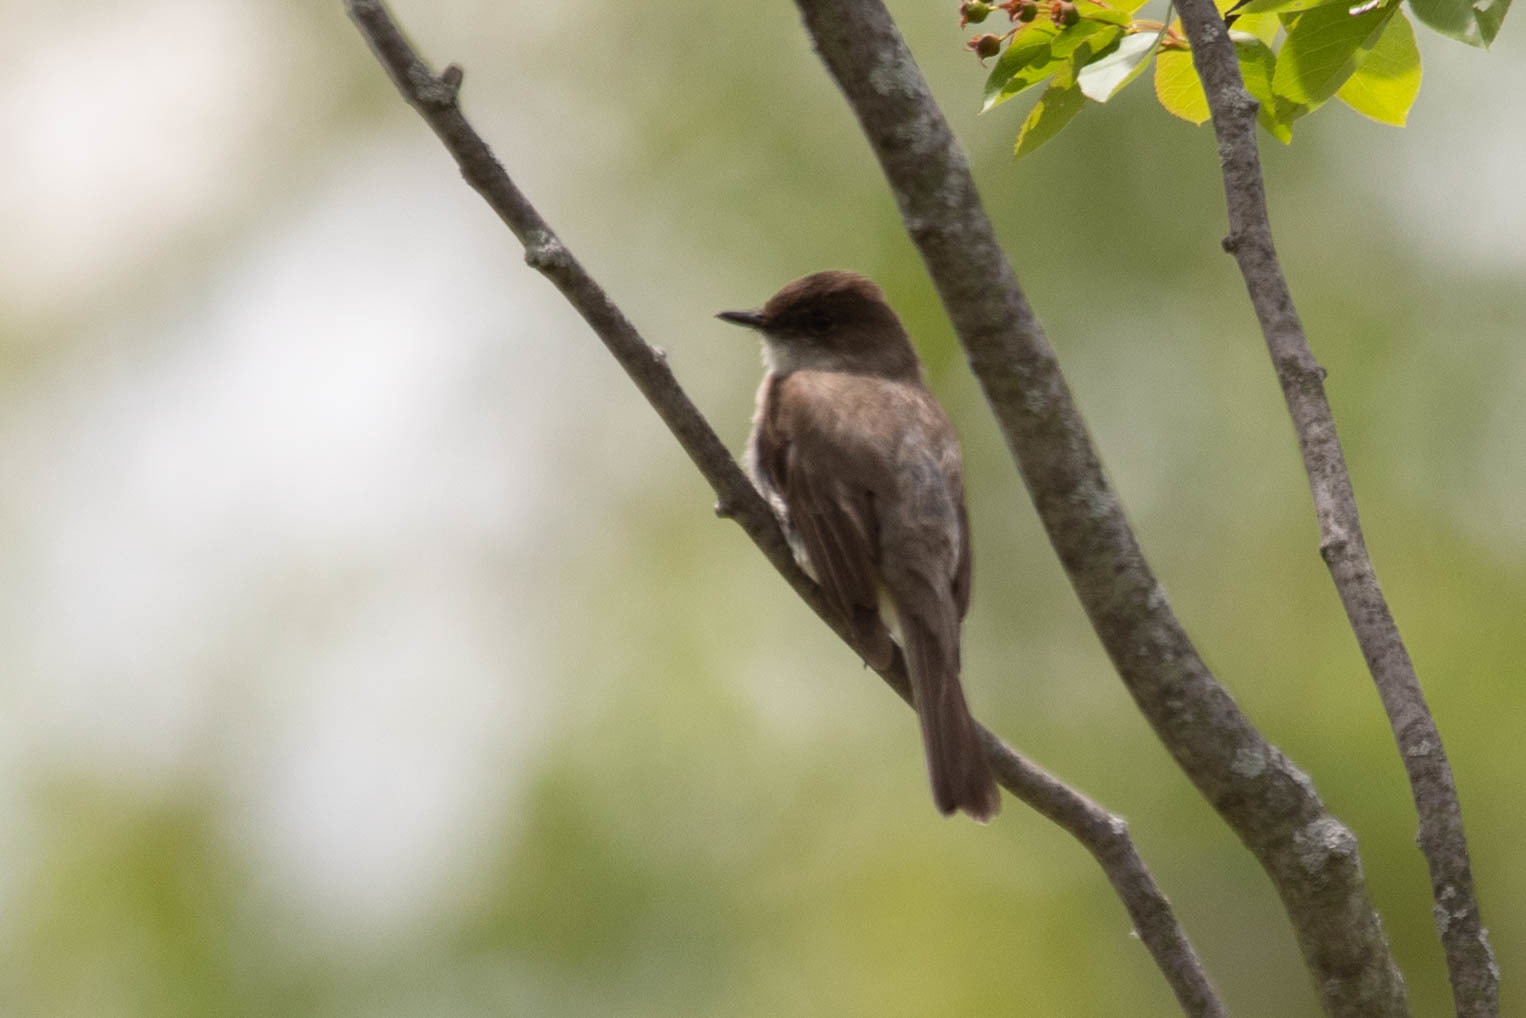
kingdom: Animalia
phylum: Chordata
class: Aves
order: Passeriformes
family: Tyrannidae
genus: Sayornis
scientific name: Sayornis phoebe
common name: Eastern phoebe
